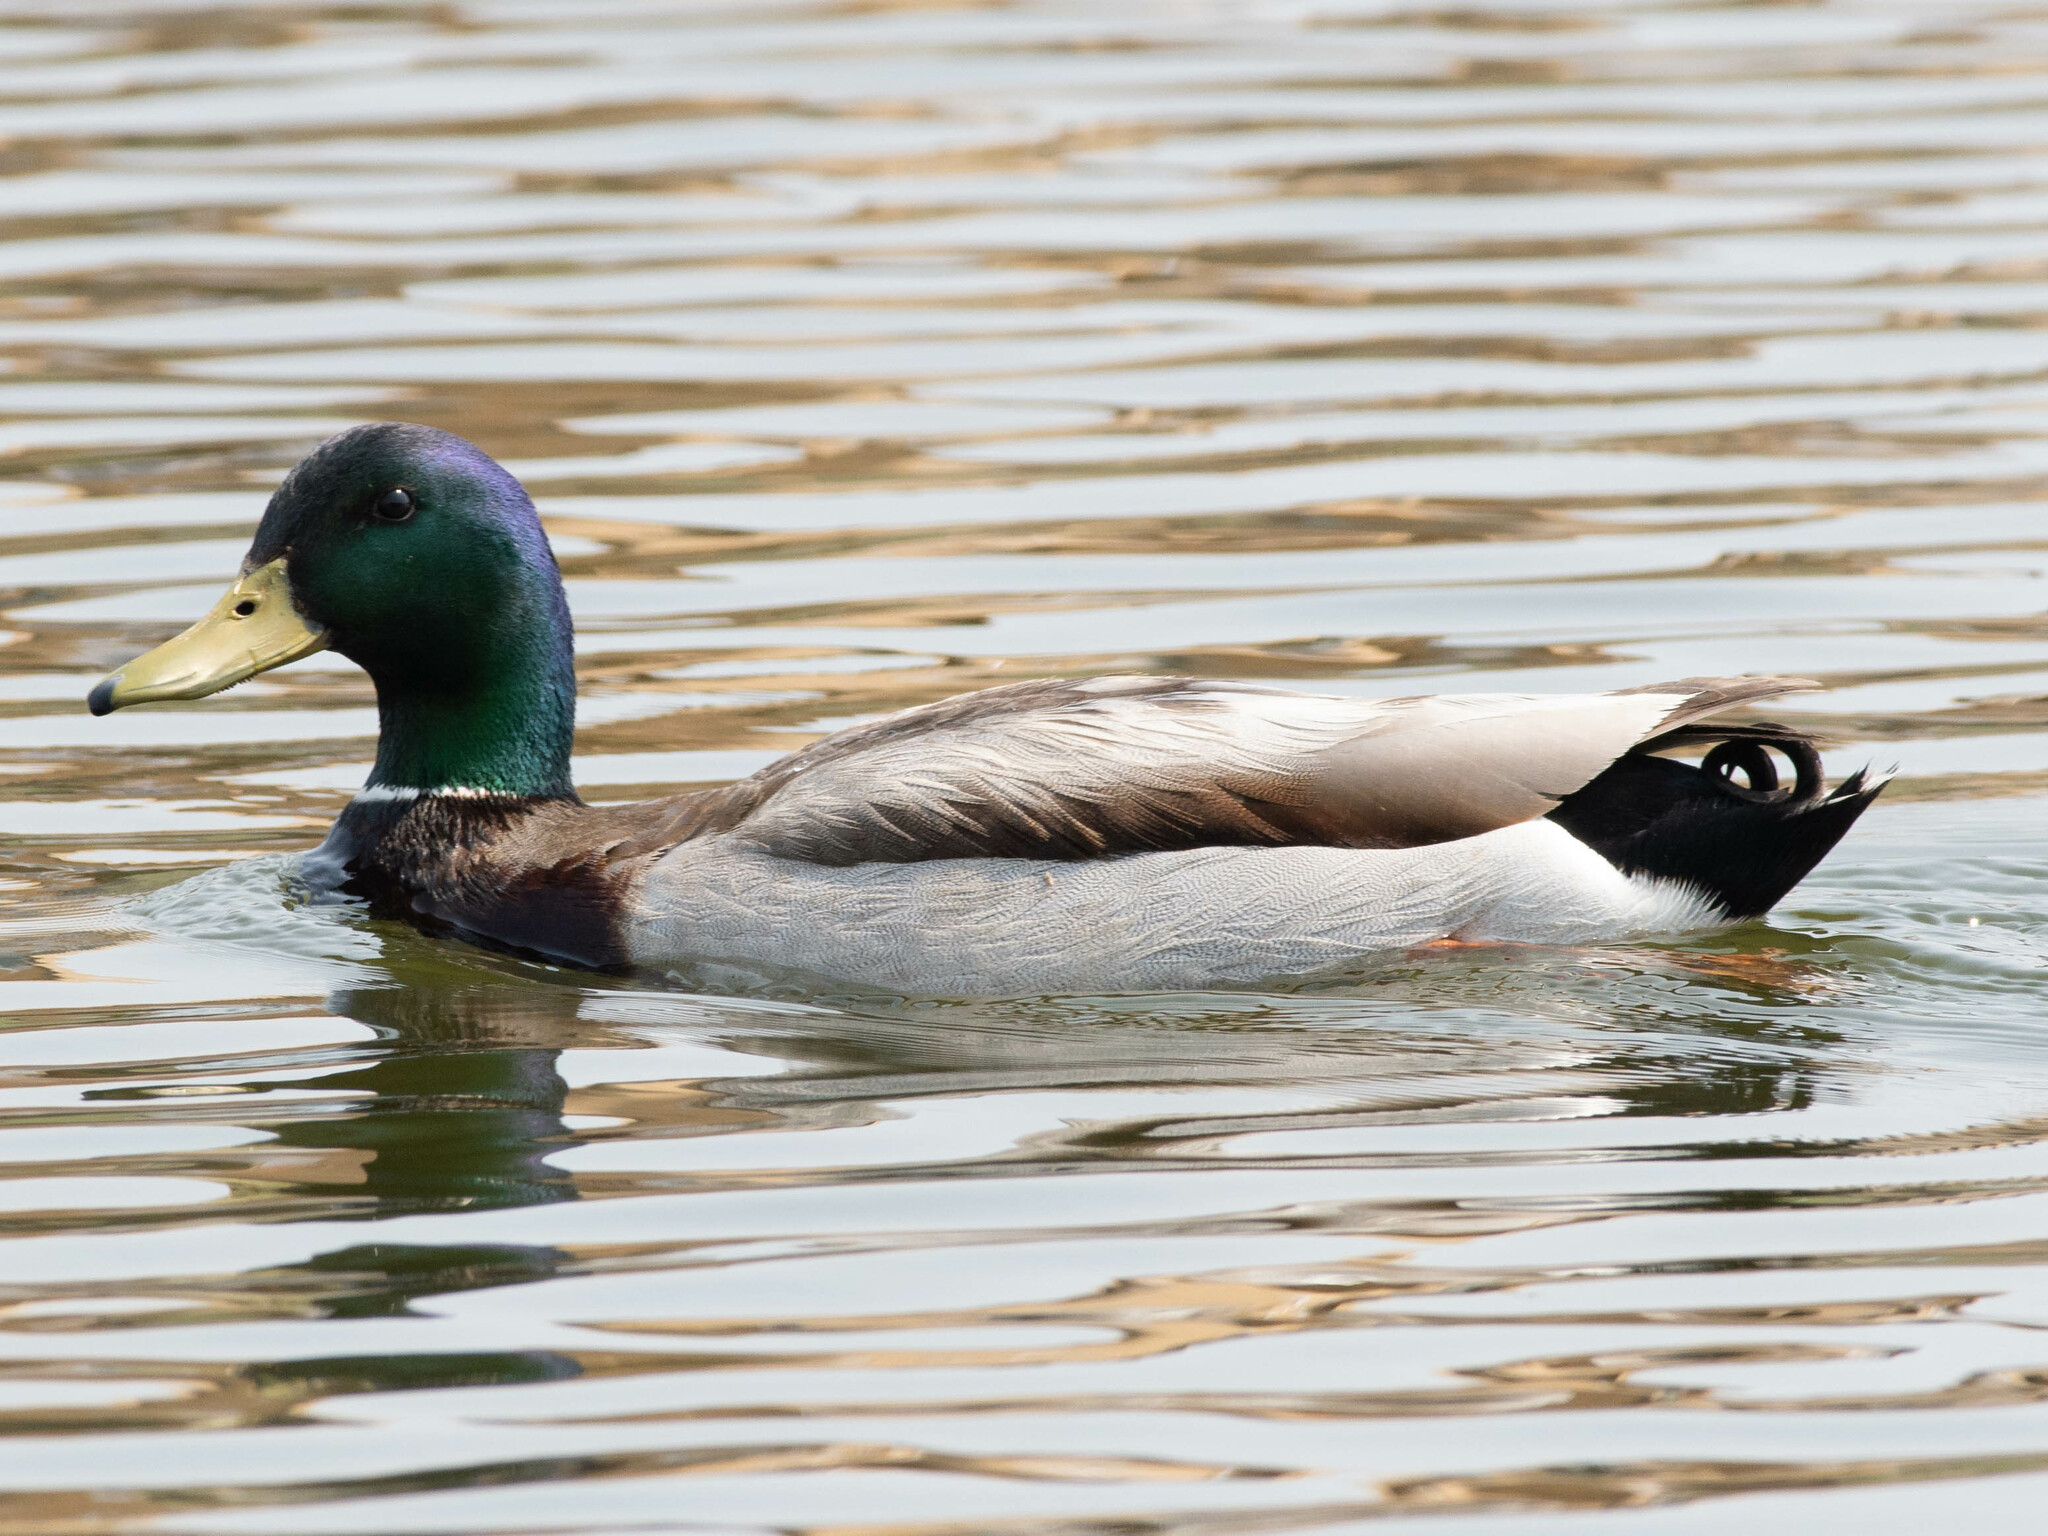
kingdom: Animalia
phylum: Chordata
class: Aves
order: Anseriformes
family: Anatidae
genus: Anas
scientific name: Anas platyrhynchos
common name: Mallard
